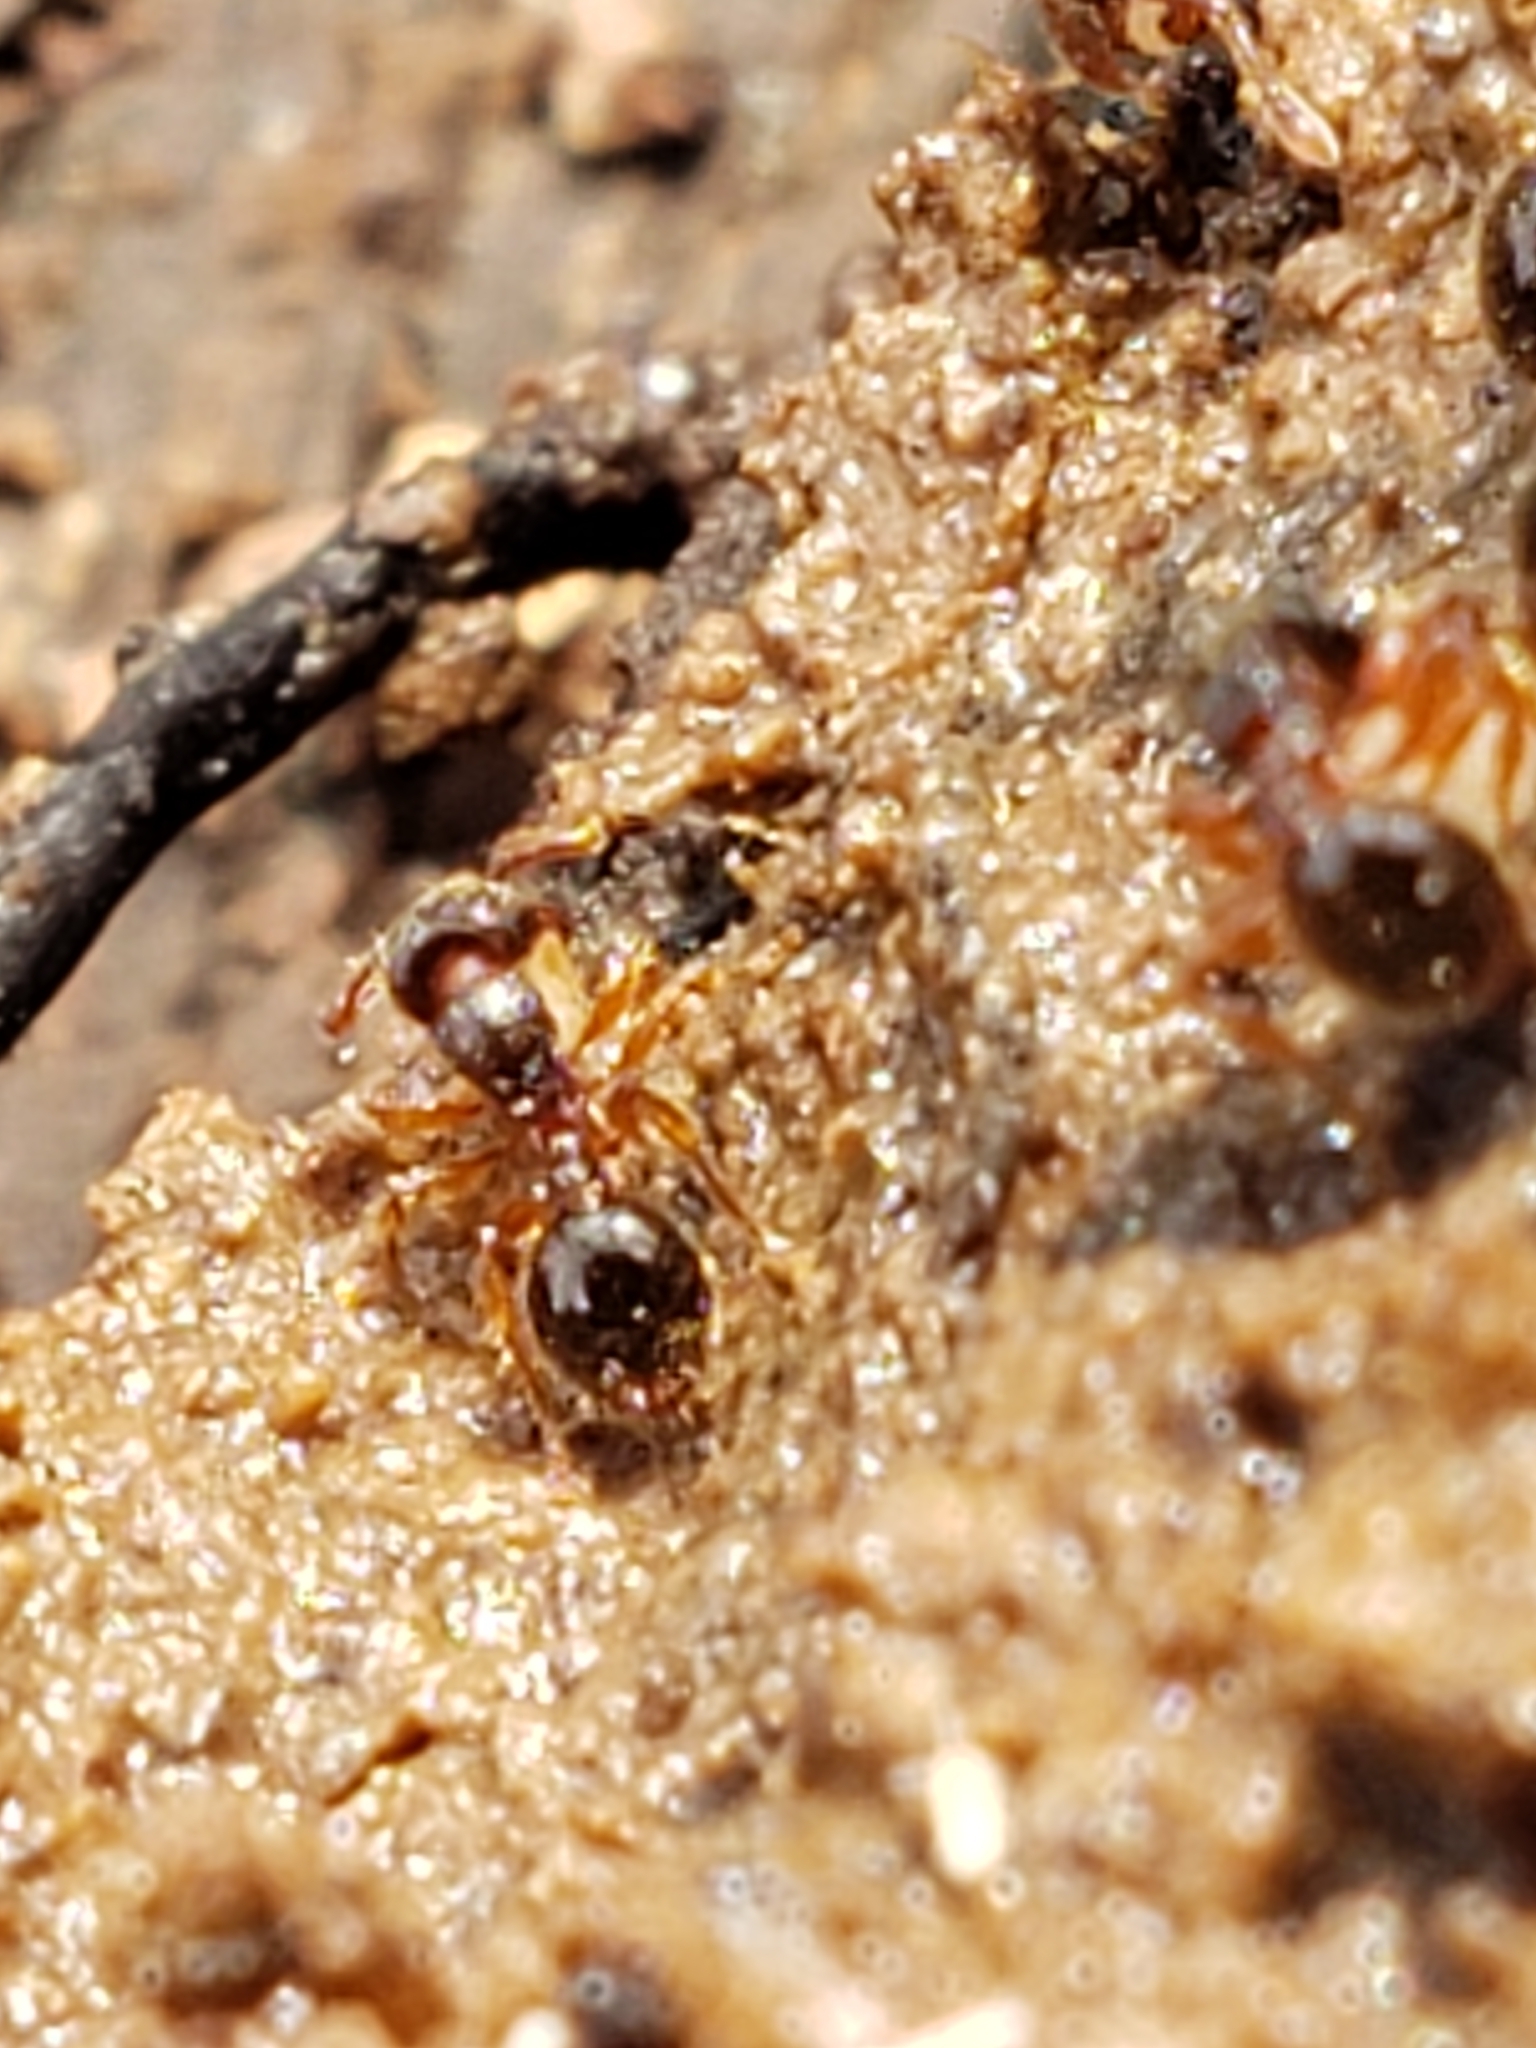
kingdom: Animalia
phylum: Arthropoda
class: Insecta
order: Hymenoptera
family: Formicidae
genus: Myrmecina
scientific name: Myrmecina americana
